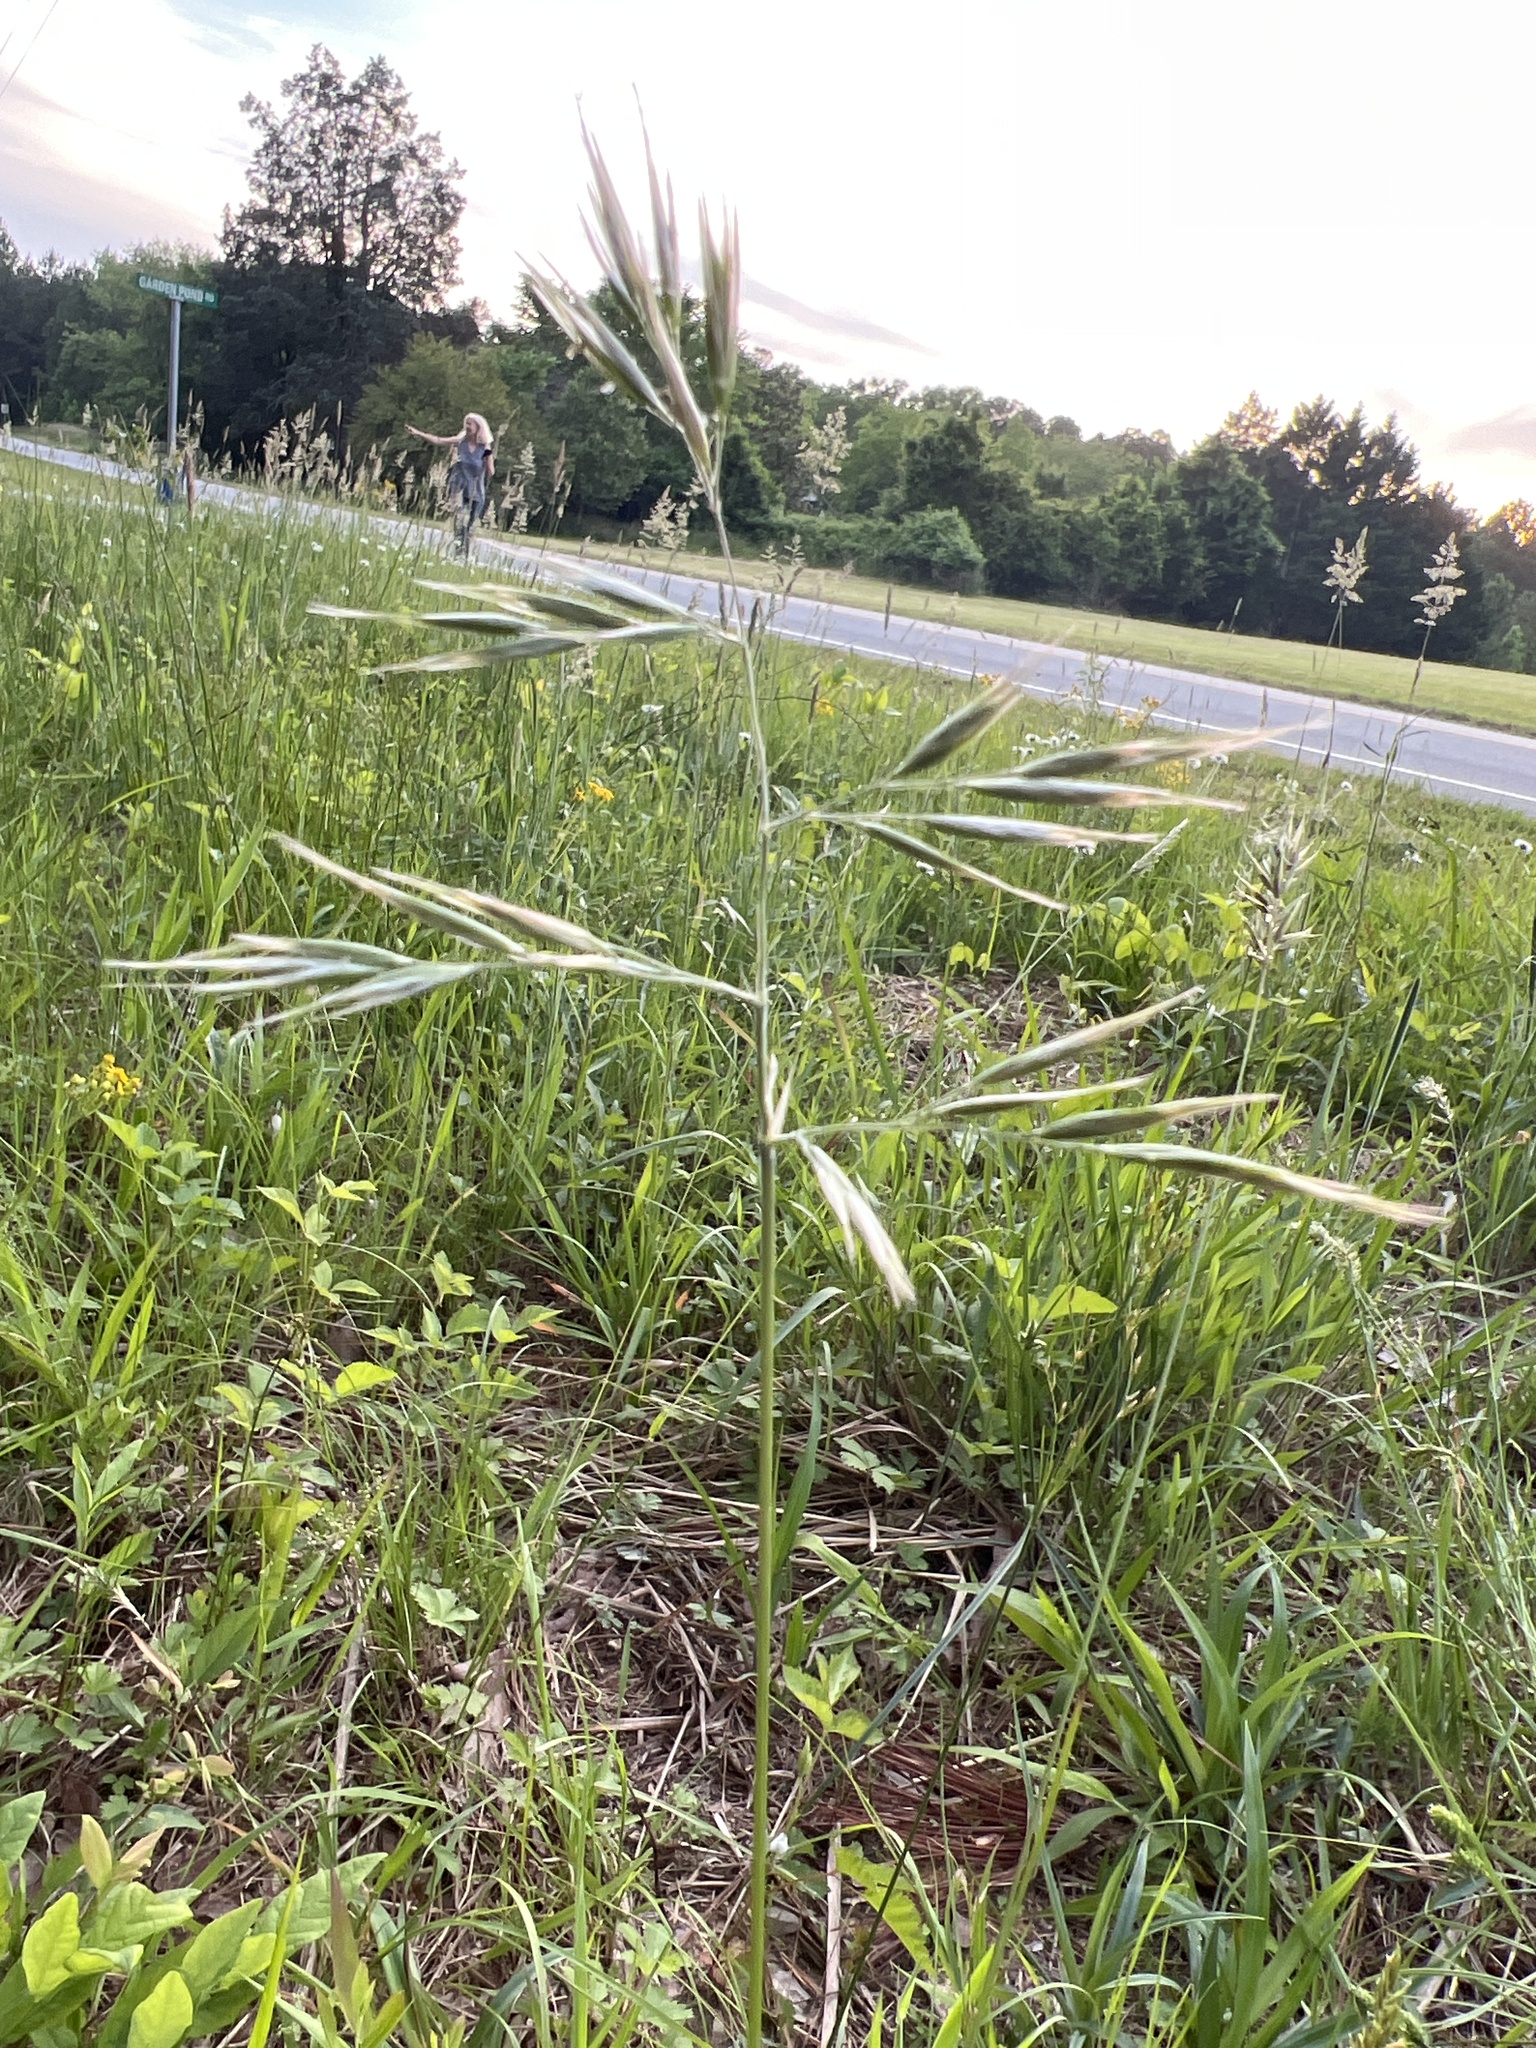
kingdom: Plantae
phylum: Tracheophyta
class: Liliopsida
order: Poales
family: Poaceae
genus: Danthonia
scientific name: Danthonia sericea
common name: Downy danthonia
